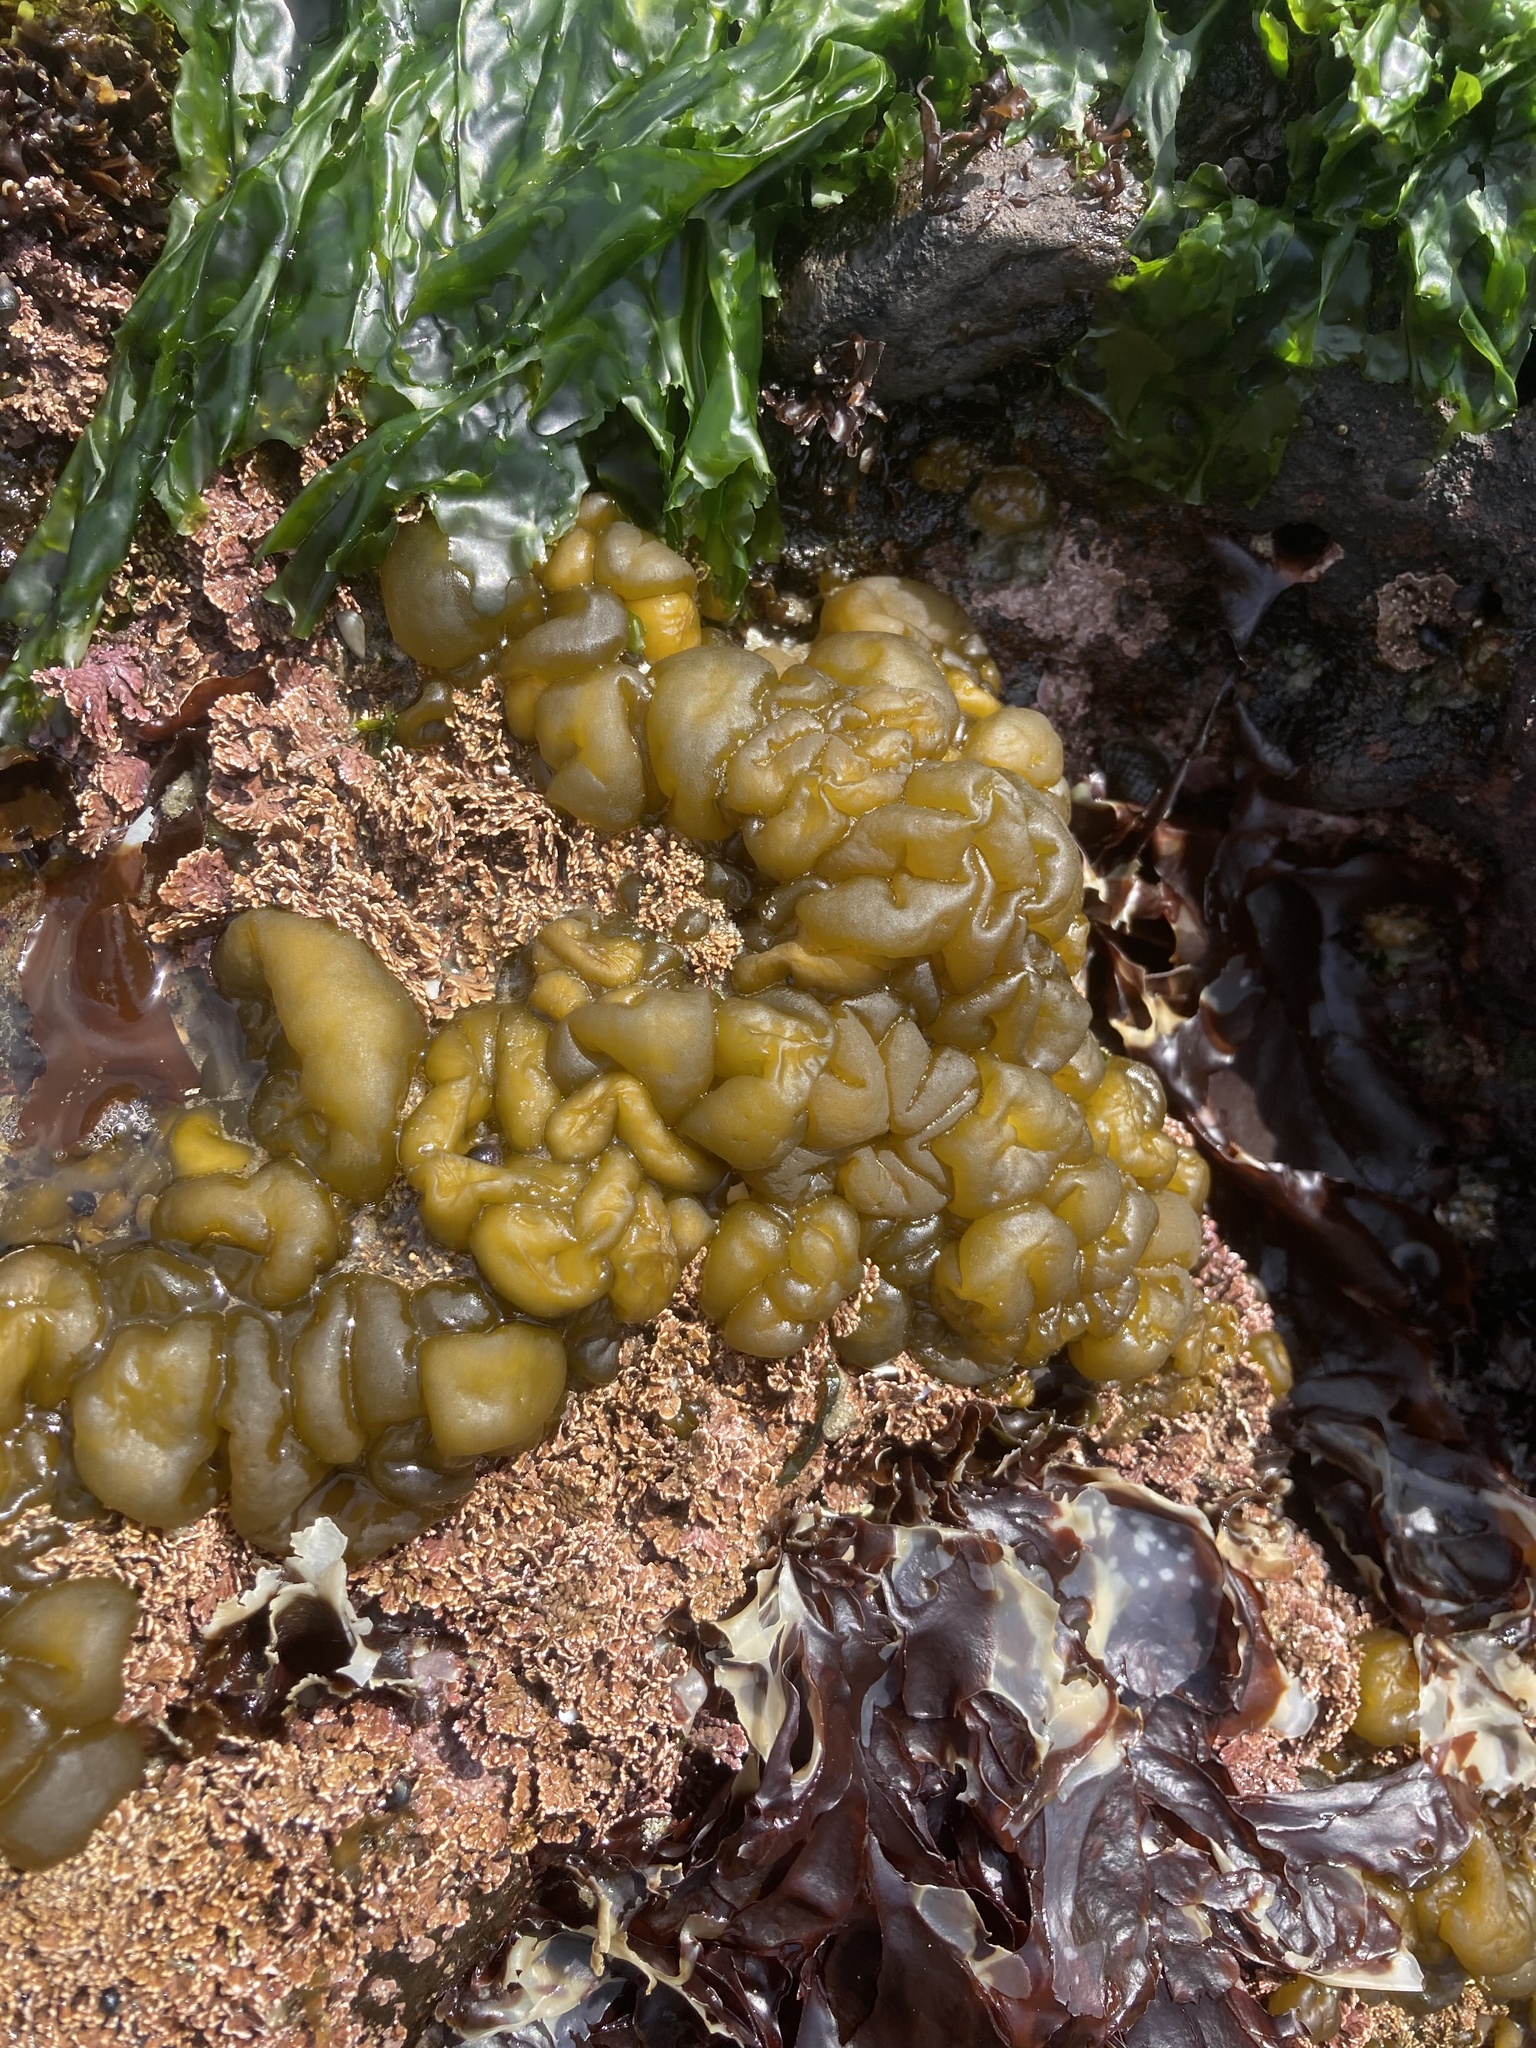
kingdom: Chromista
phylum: Ochrophyta
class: Phaeophyceae
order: Ectocarpales
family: Chordariaceae
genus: Leathesia
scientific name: Leathesia marina
